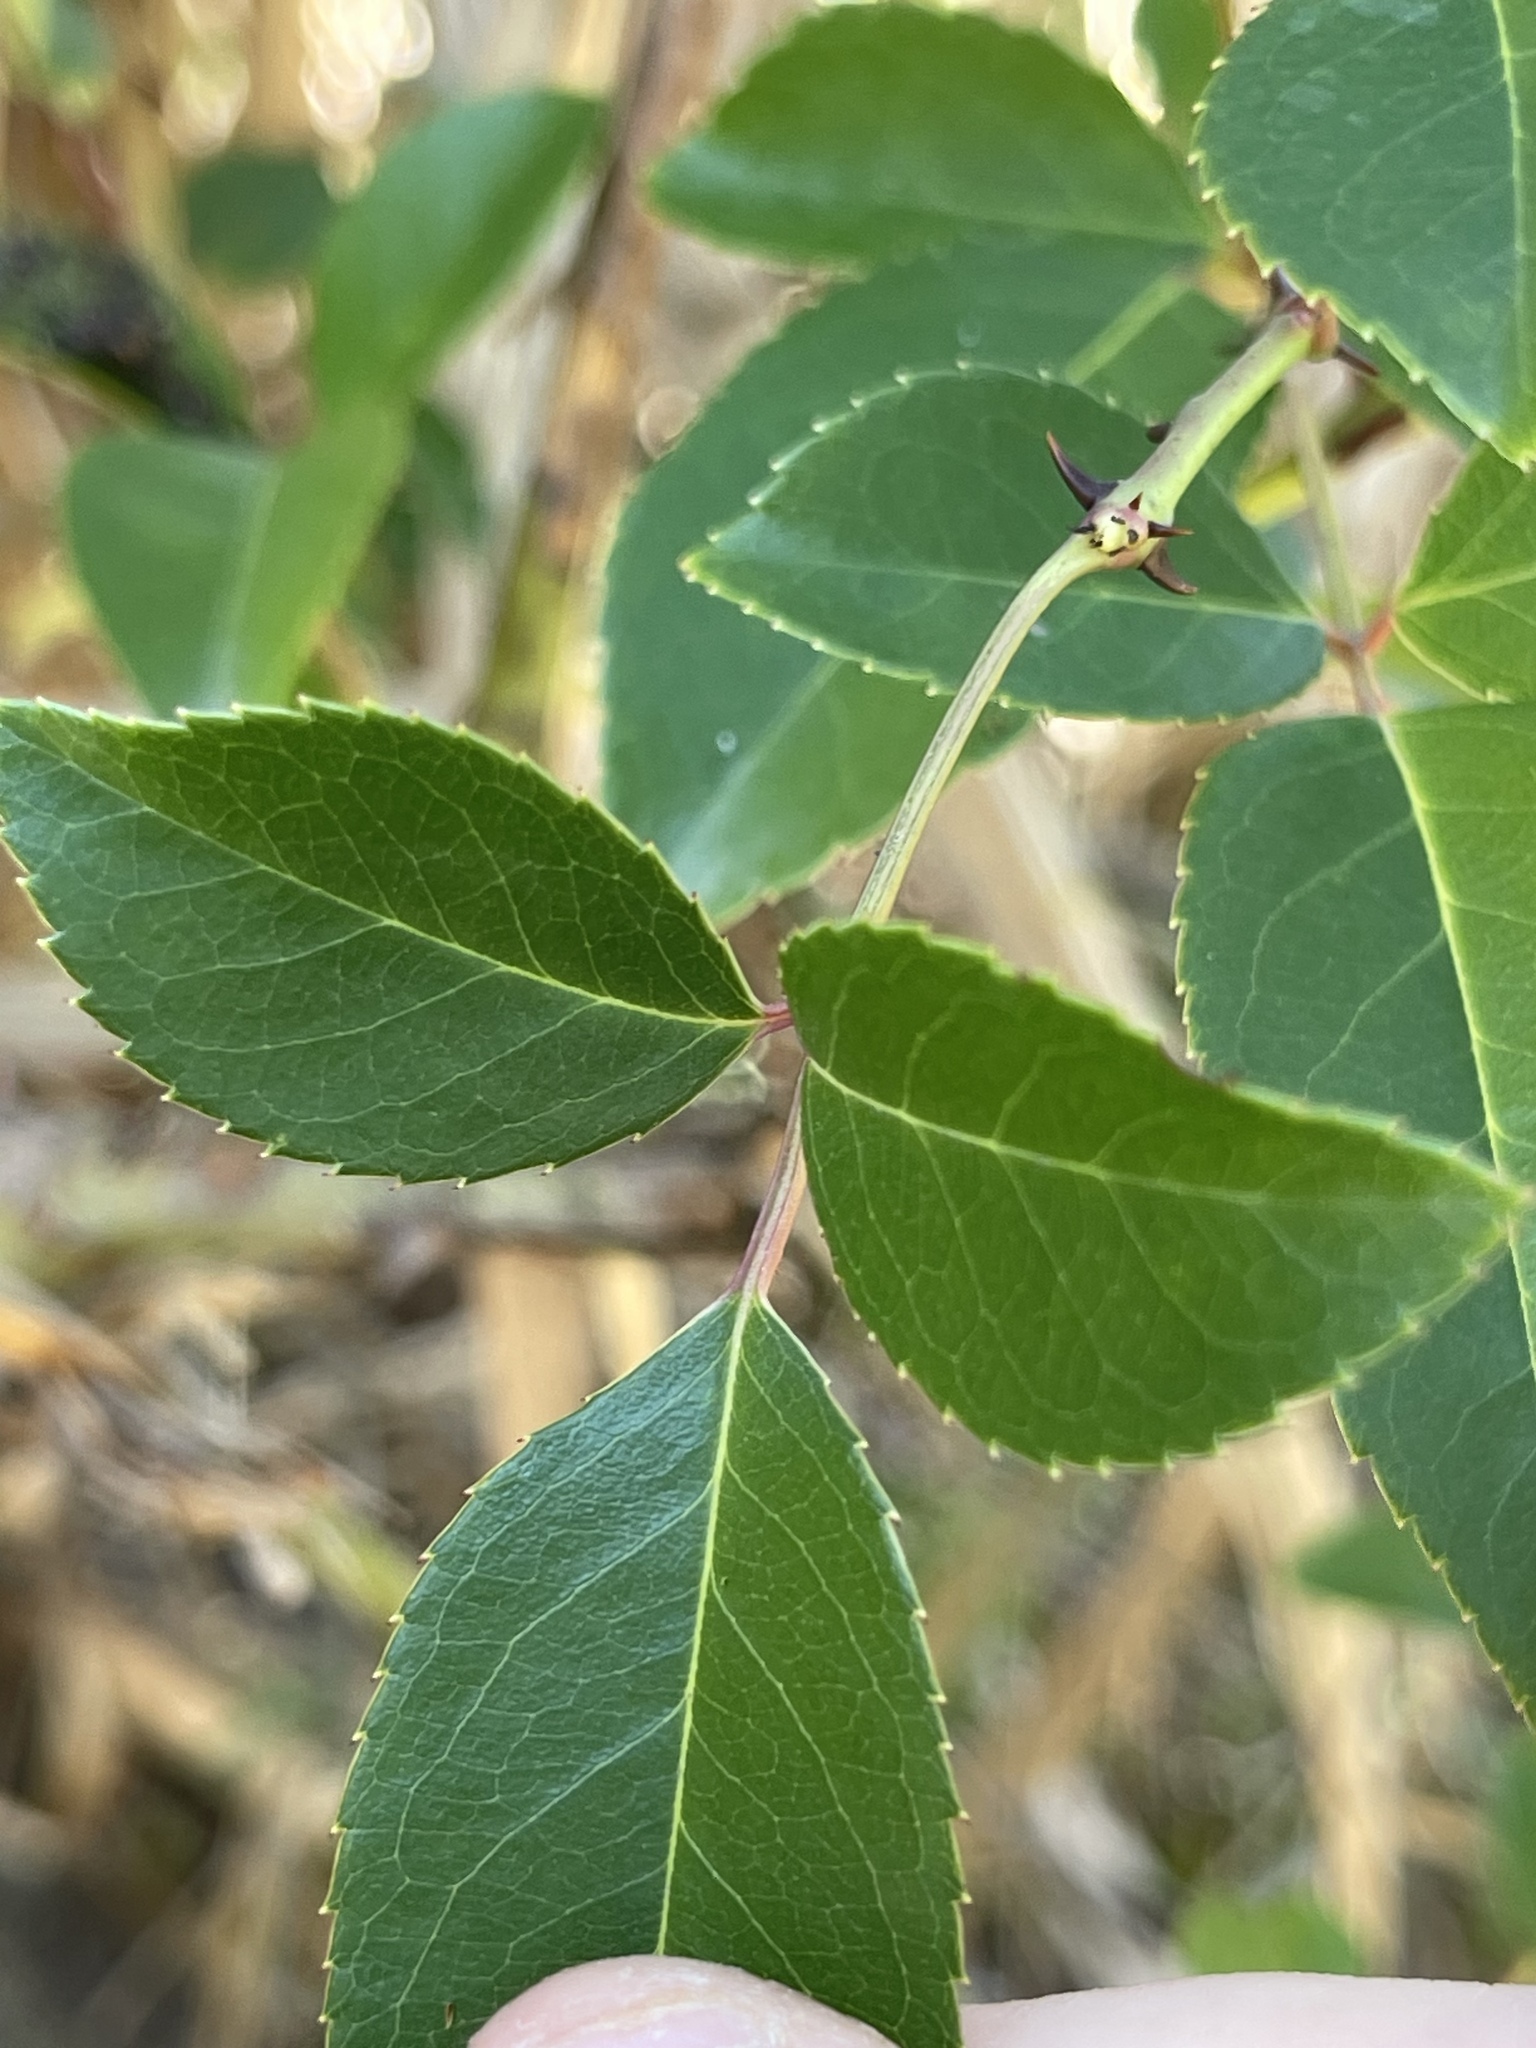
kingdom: Plantae
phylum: Tracheophyta
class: Magnoliopsida
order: Rosales
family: Rosaceae
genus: Rosa
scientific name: Rosa laevigata
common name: Cherokee rose
